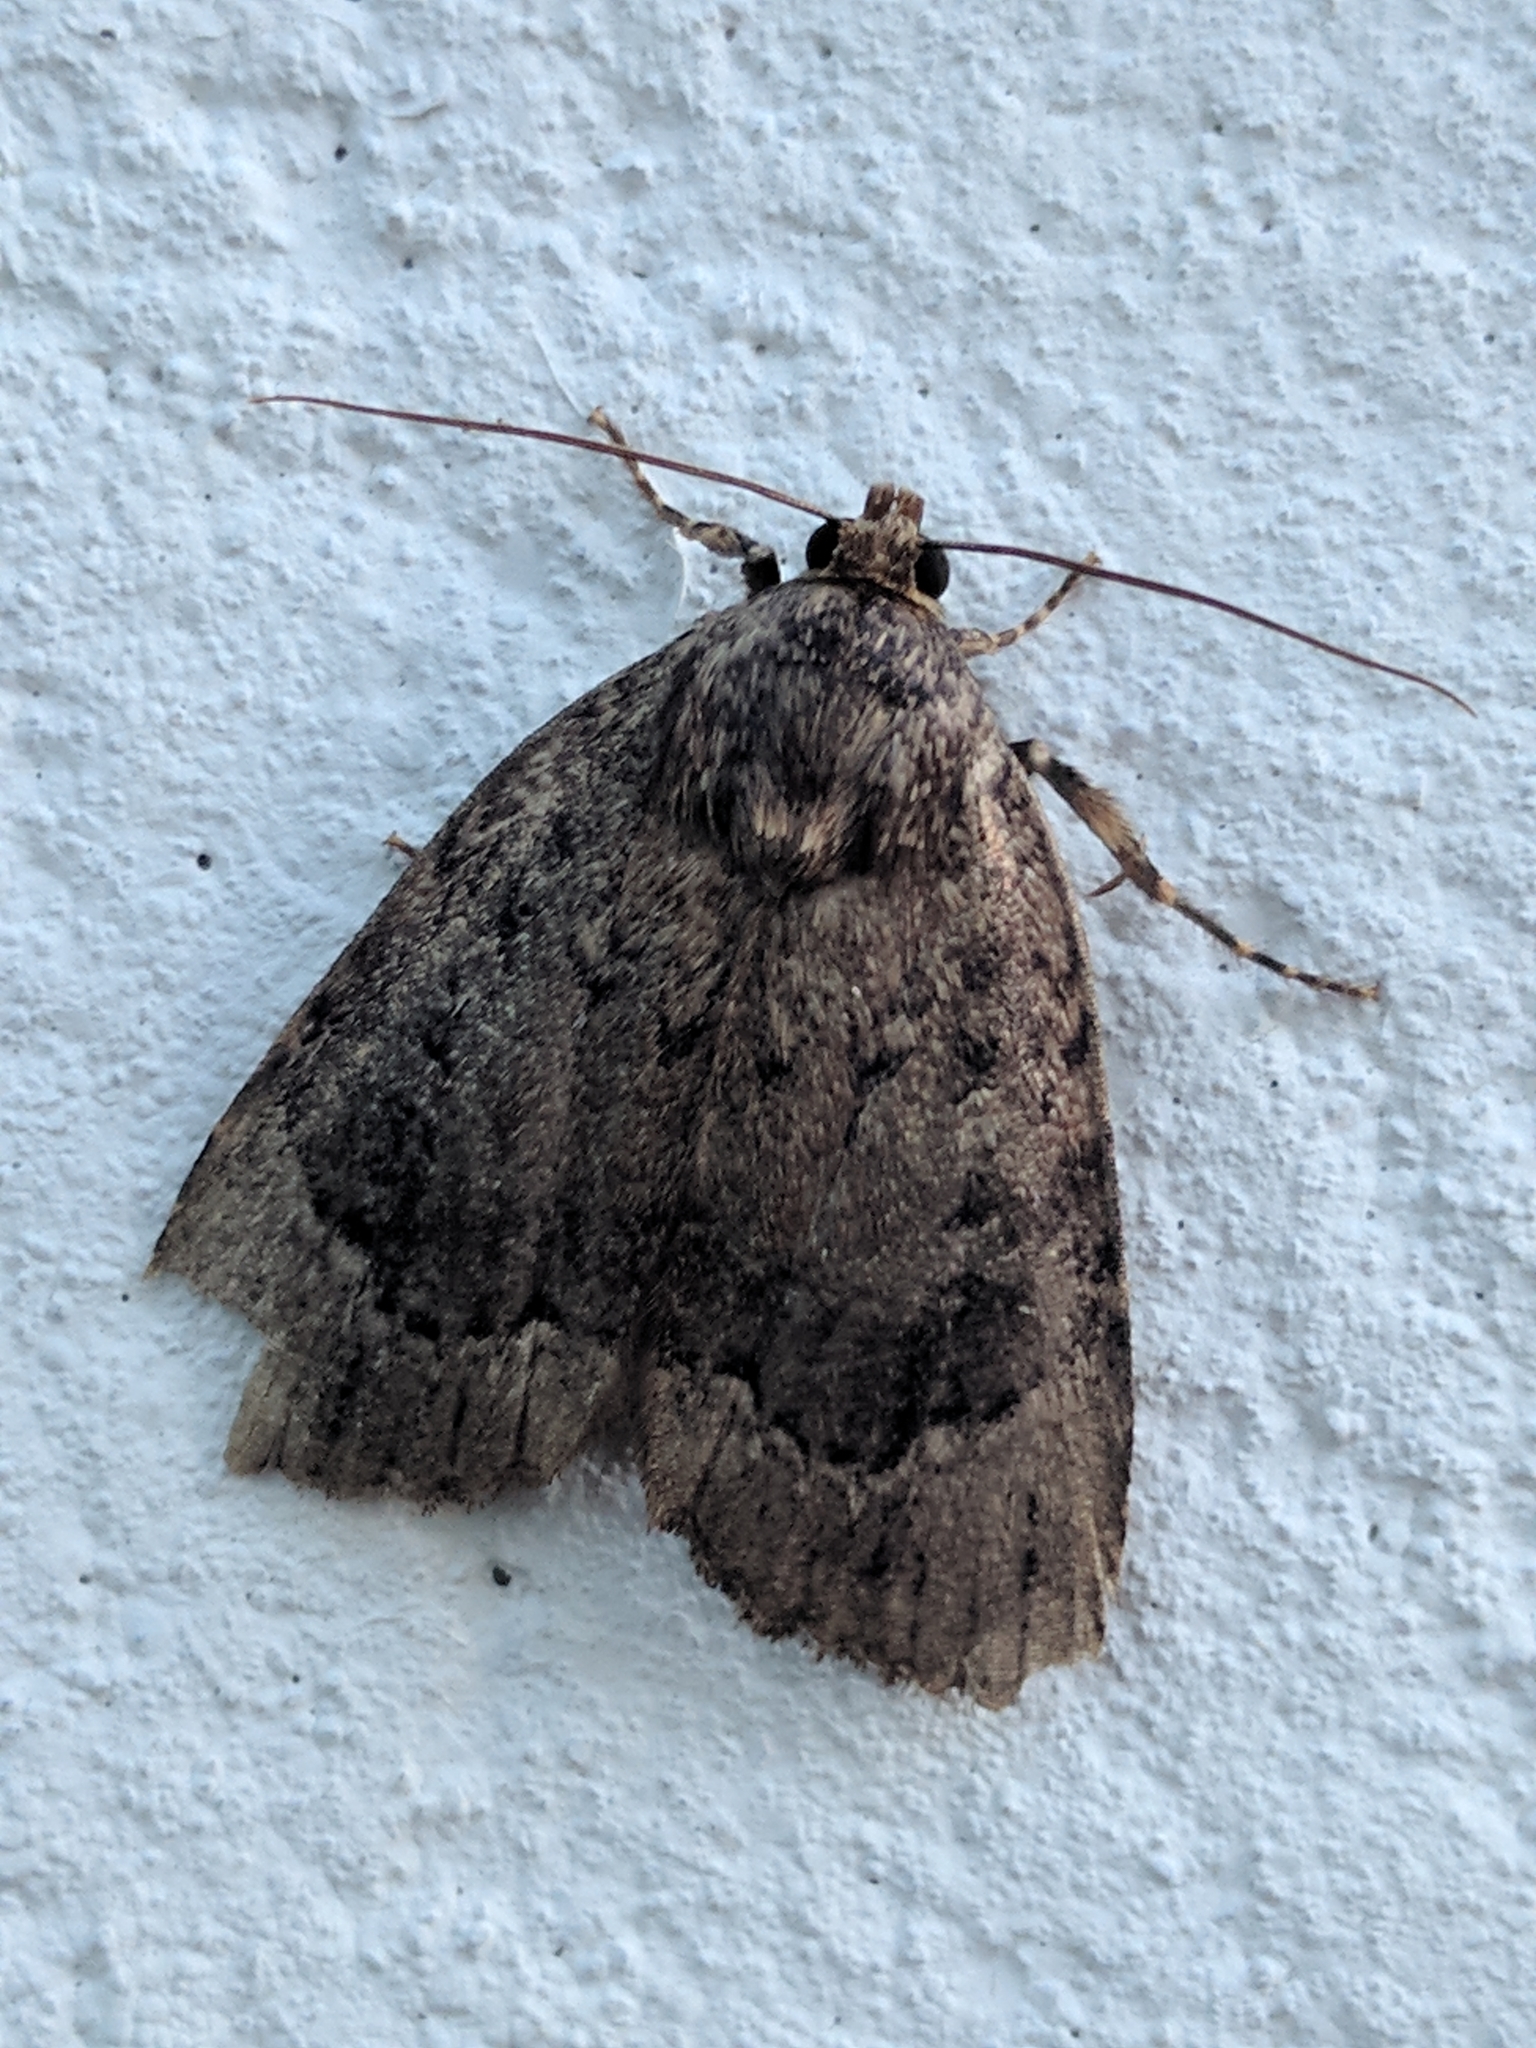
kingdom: Animalia
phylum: Arthropoda
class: Insecta
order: Lepidoptera
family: Noctuidae
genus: Amphipyra
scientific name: Amphipyra pyramidoides
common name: American copper underwing
